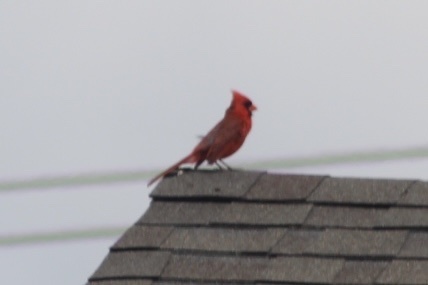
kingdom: Animalia
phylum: Chordata
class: Aves
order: Passeriformes
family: Cardinalidae
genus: Cardinalis
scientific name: Cardinalis cardinalis
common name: Northern cardinal
